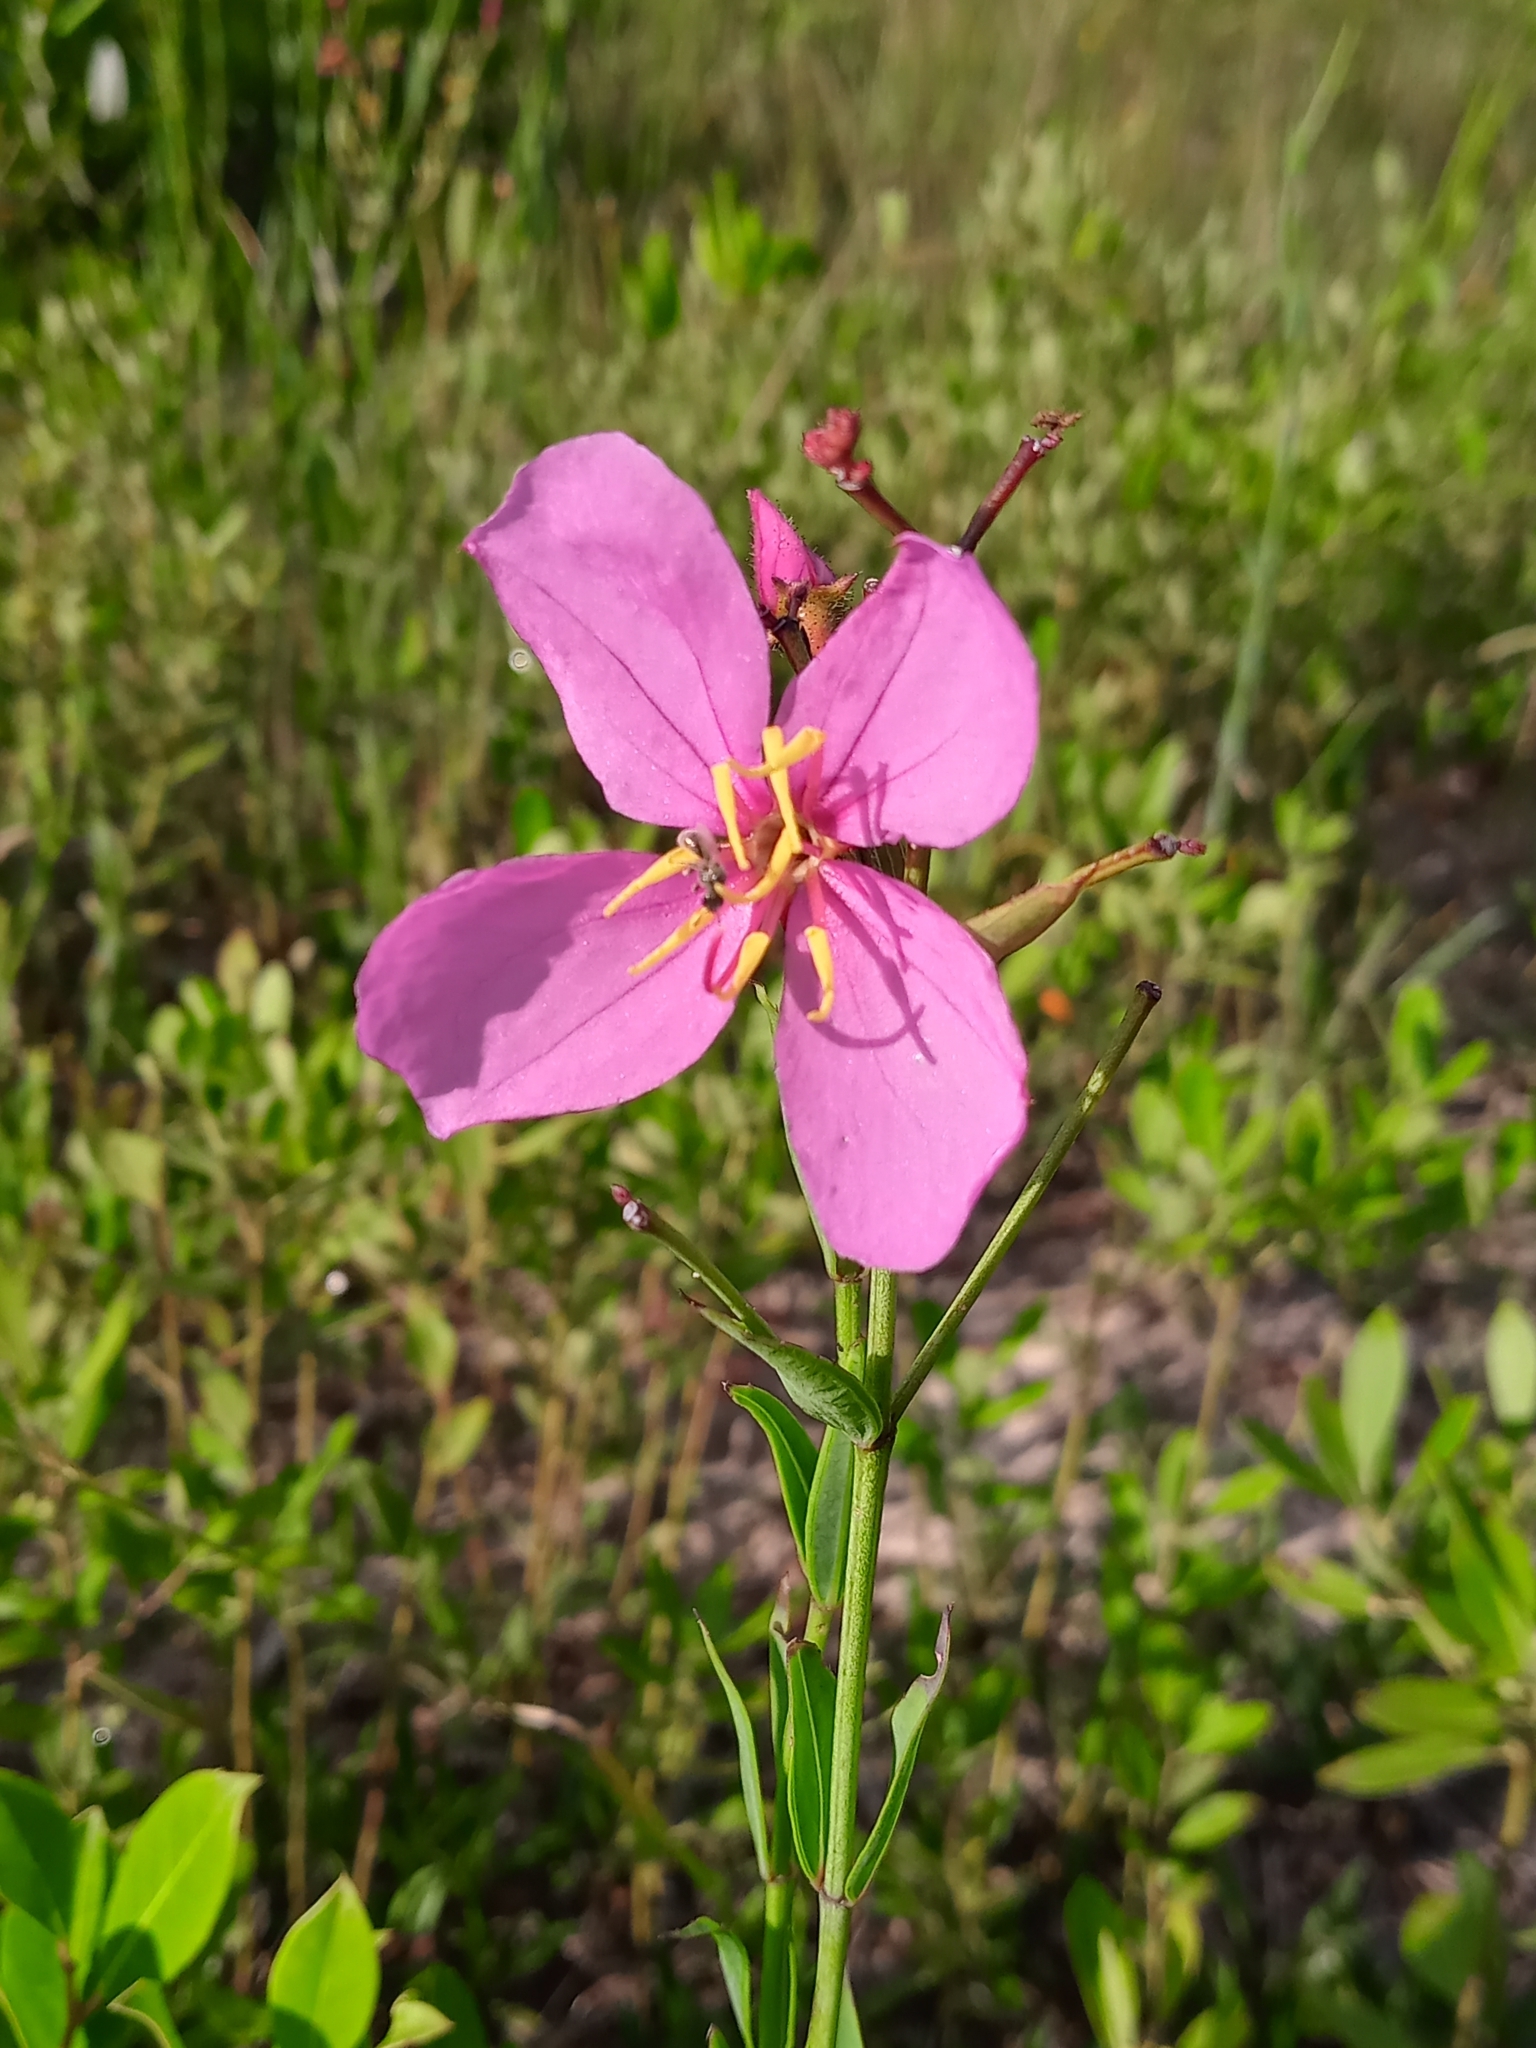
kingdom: Plantae
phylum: Tracheophyta
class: Magnoliopsida
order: Myrtales
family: Melastomataceae
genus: Rhexia
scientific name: Rhexia alifanus
